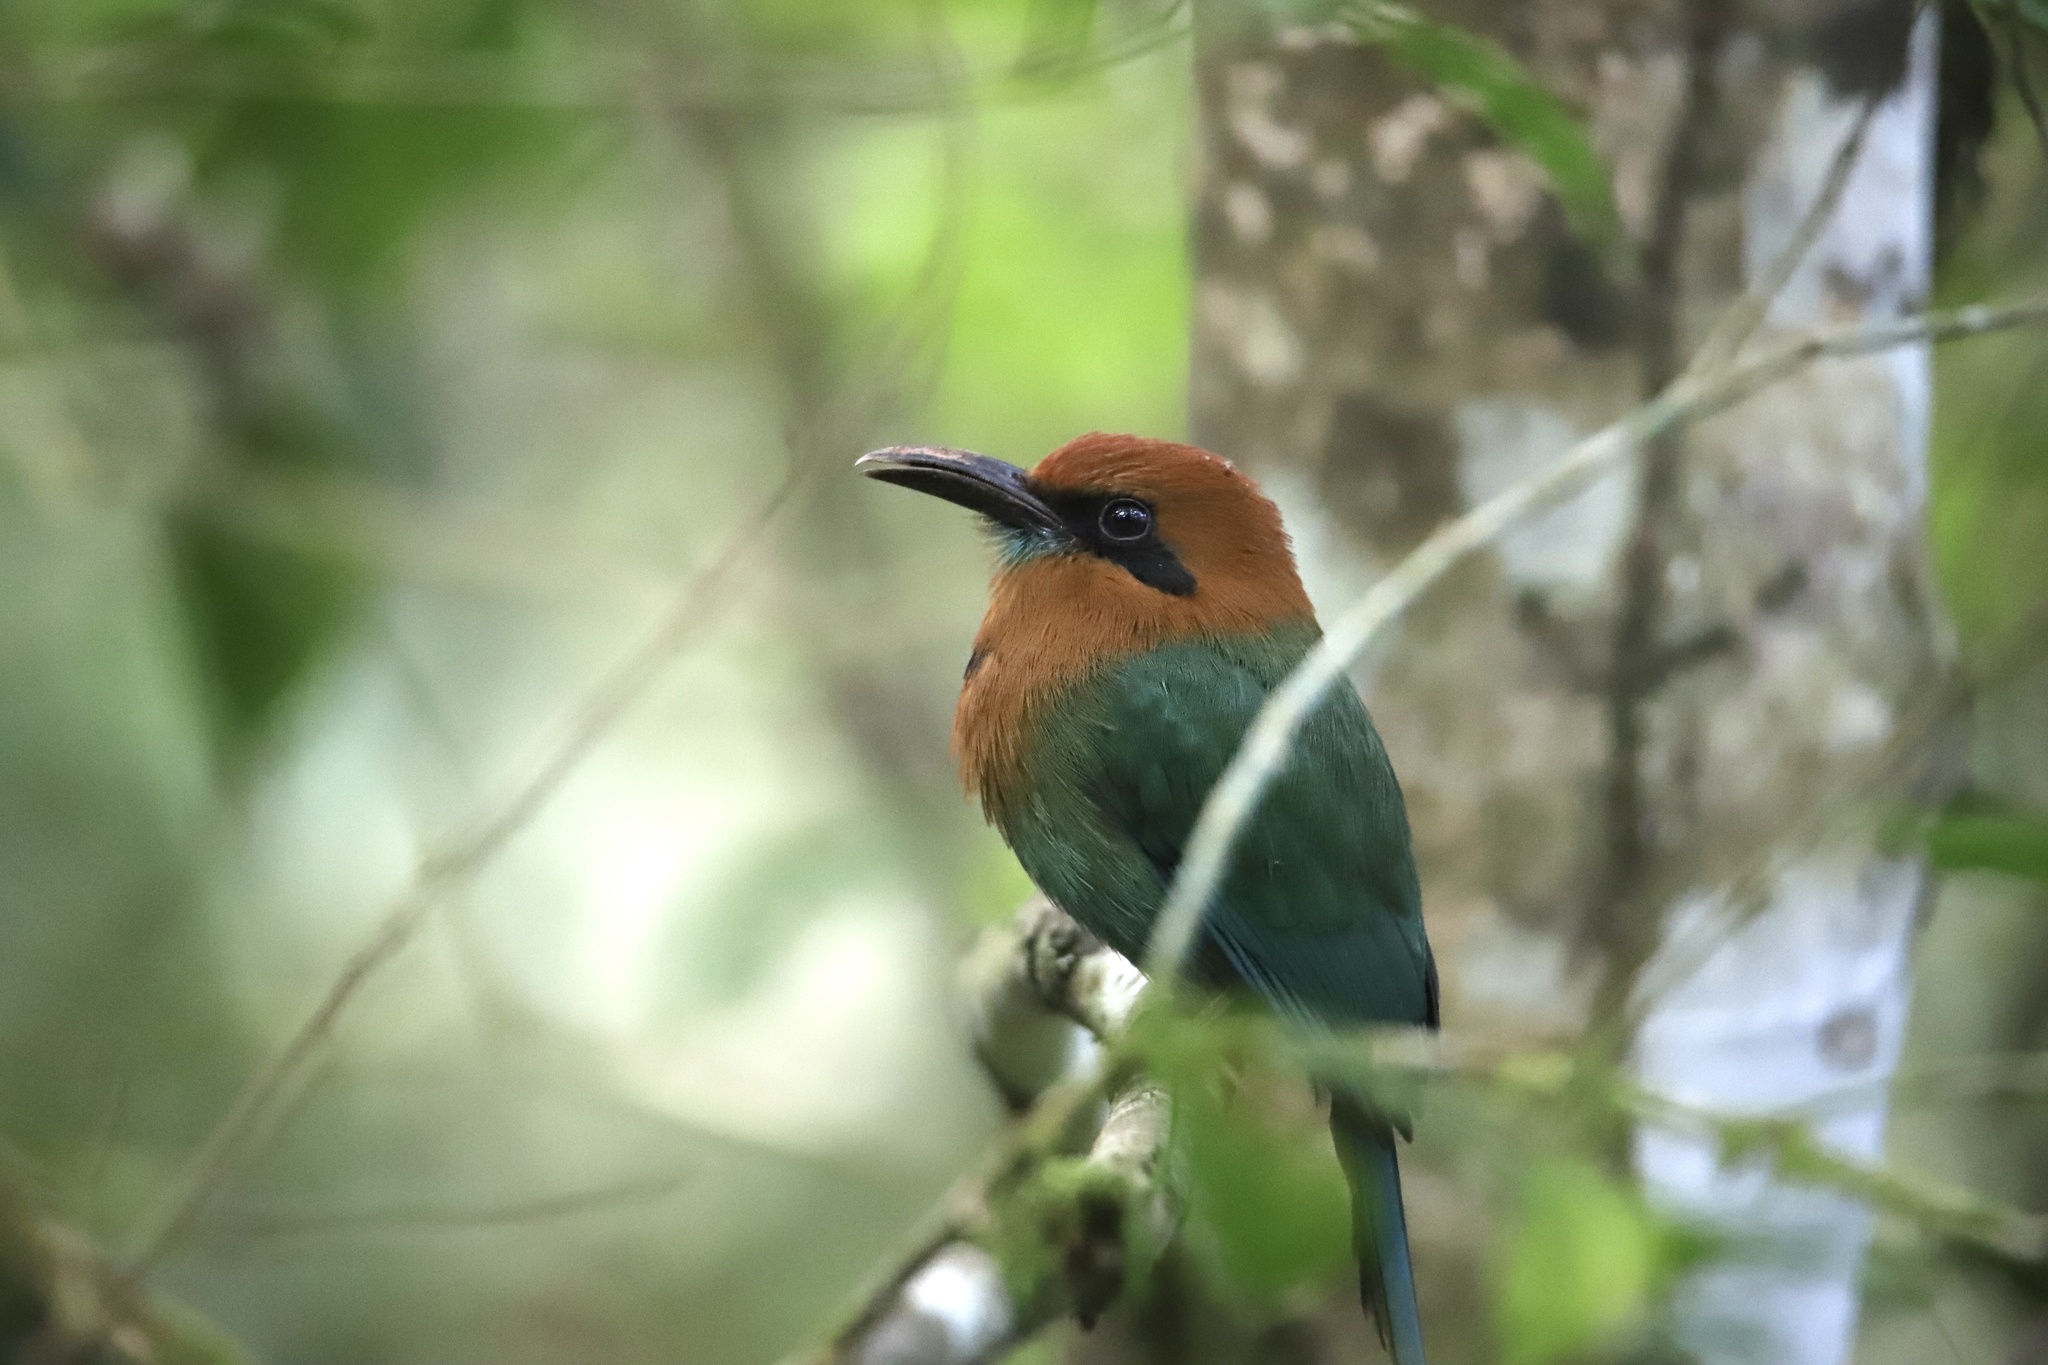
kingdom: Animalia
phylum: Chordata
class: Aves
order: Coraciiformes
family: Momotidae
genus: Electron
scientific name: Electron platyrhynchum
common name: Broad-billed motmot
